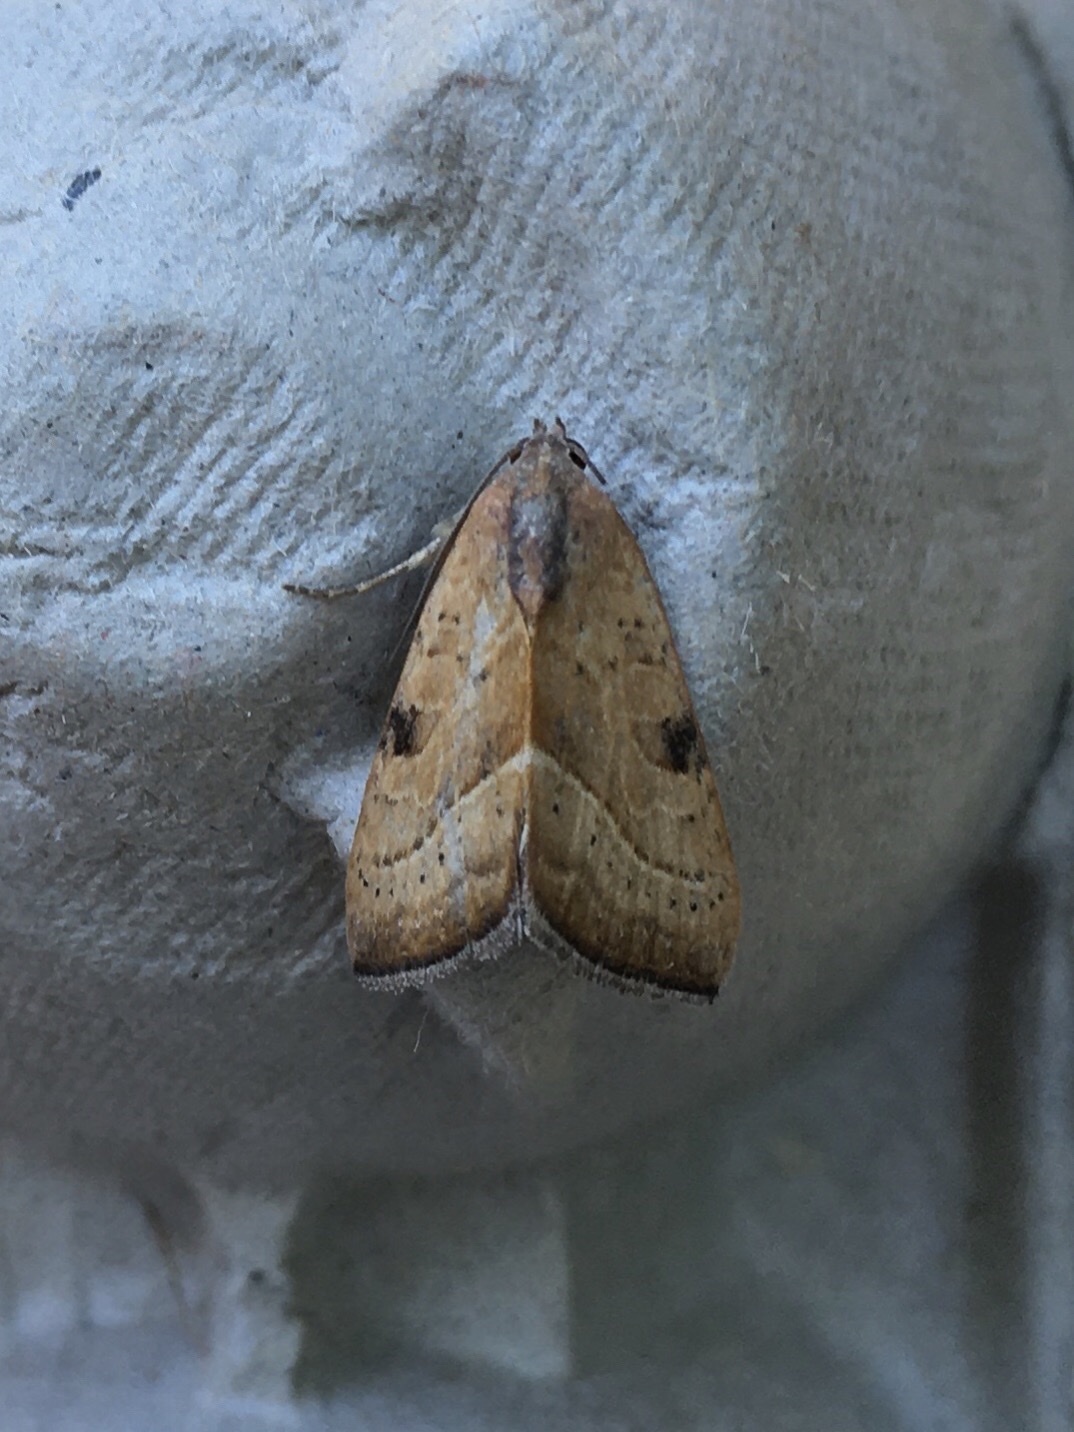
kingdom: Animalia
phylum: Arthropoda
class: Insecta
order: Lepidoptera
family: Noctuidae
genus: Galgula
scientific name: Galgula partita
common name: Wedgeling
